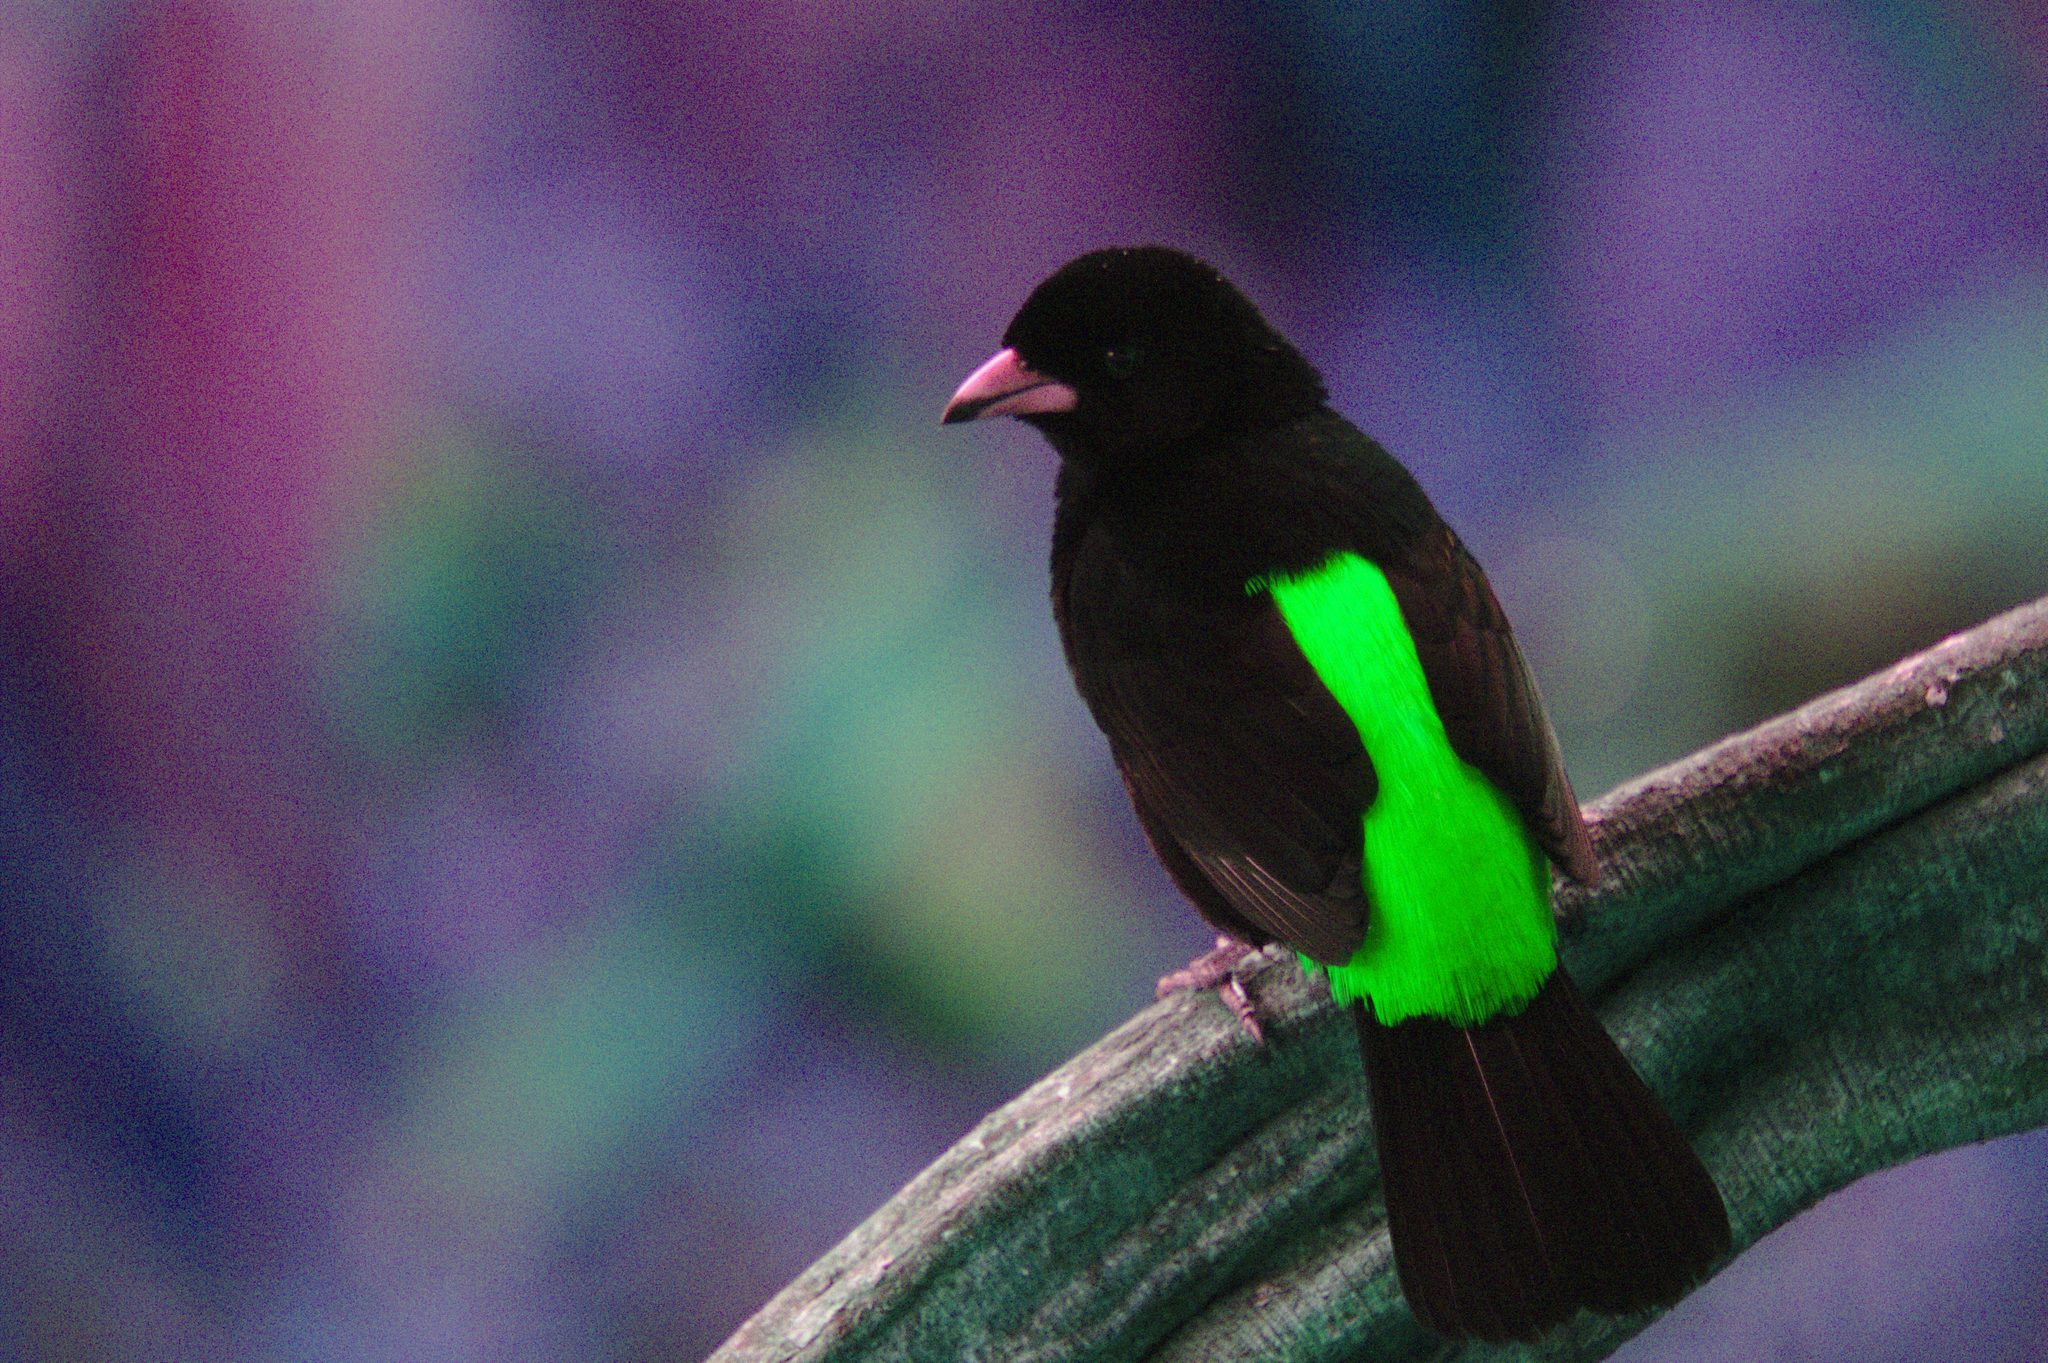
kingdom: Animalia
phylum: Chordata
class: Aves
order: Passeriformes
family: Thraupidae
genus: Ramphocelus
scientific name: Ramphocelus passerinii
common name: Passerini's tanager
